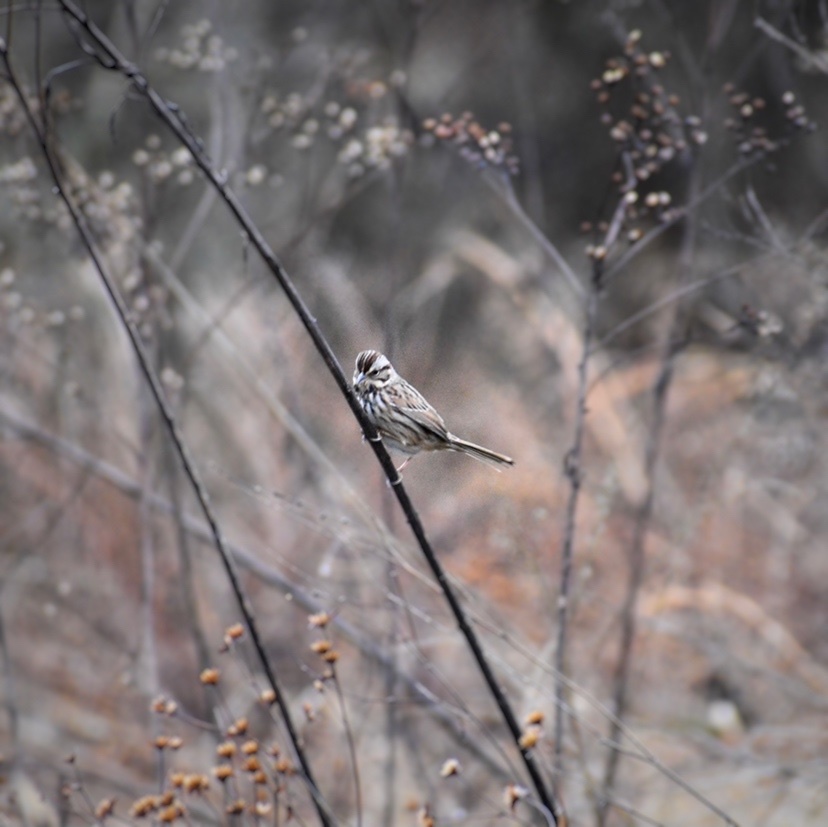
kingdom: Animalia
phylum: Chordata
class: Aves
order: Passeriformes
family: Passerellidae
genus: Melospiza
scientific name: Melospiza melodia
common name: Song sparrow
